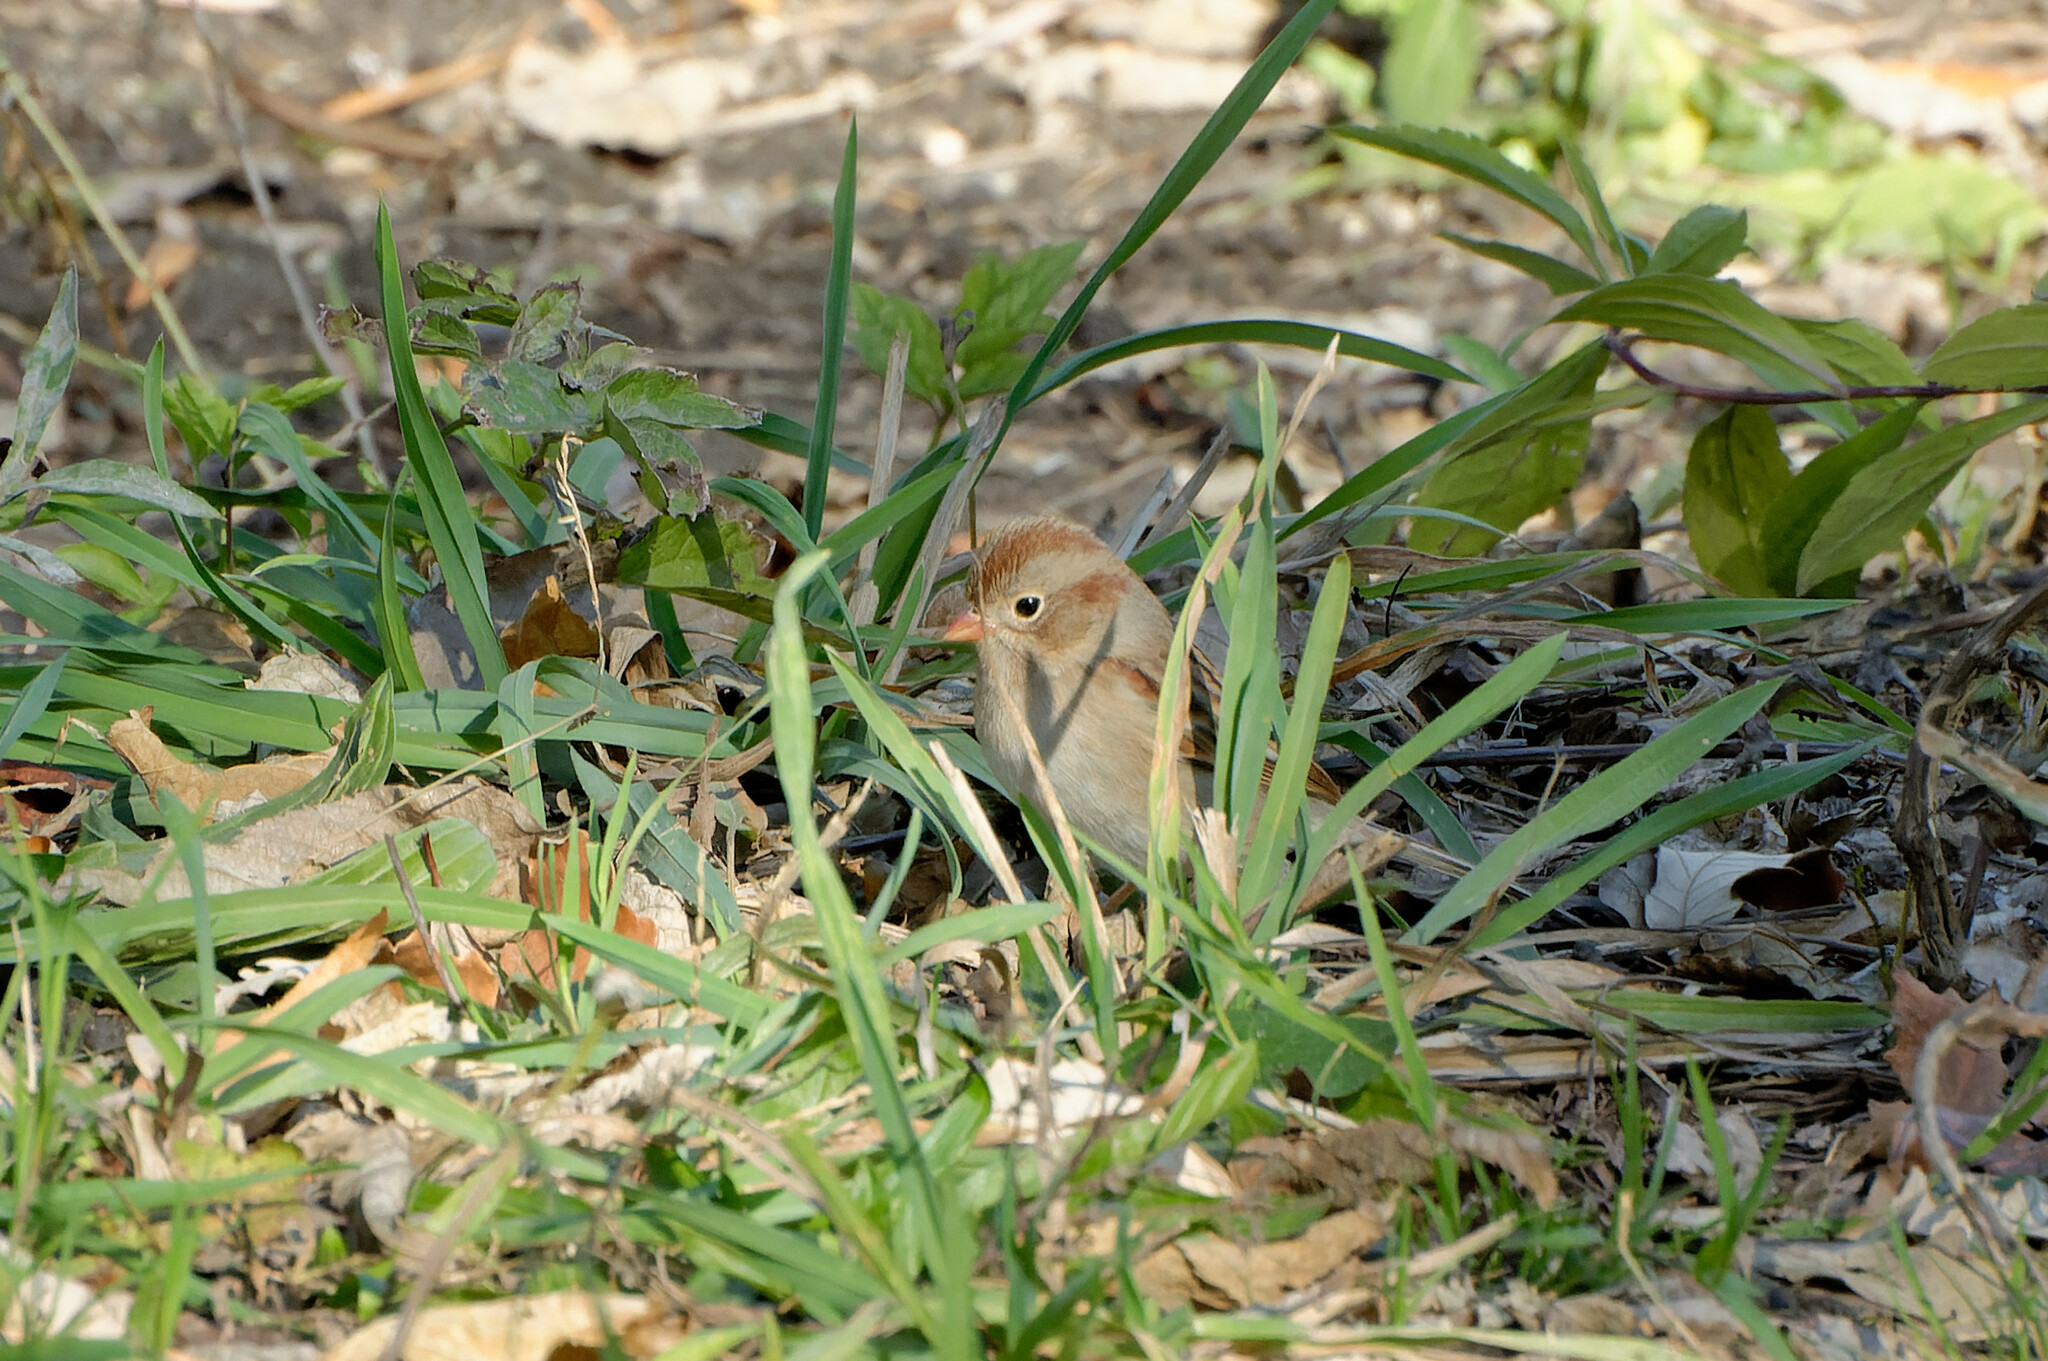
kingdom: Animalia
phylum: Chordata
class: Aves
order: Passeriformes
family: Passerellidae
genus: Spizella
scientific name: Spizella pusilla
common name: Field sparrow
